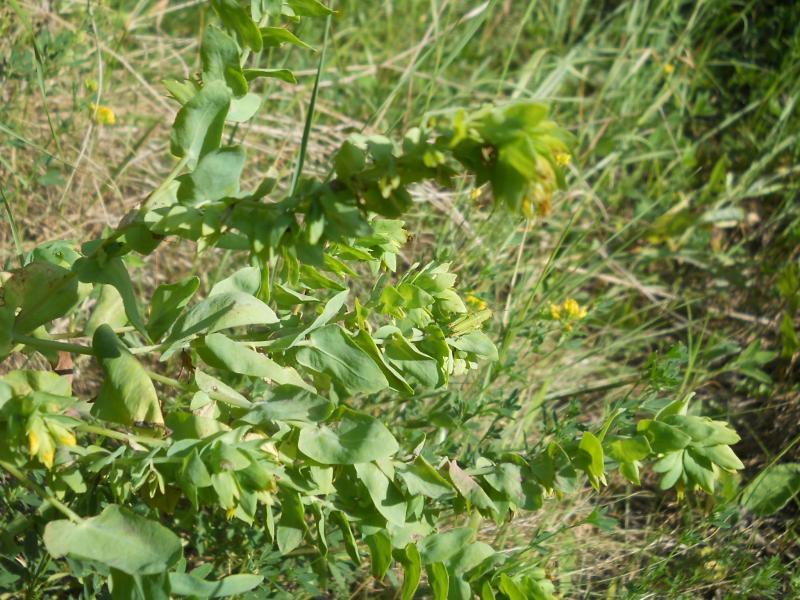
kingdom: Plantae
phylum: Tracheophyta
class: Magnoliopsida
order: Boraginales
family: Boraginaceae
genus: Cerinthe
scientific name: Cerinthe minor
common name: Lesser honeywort
